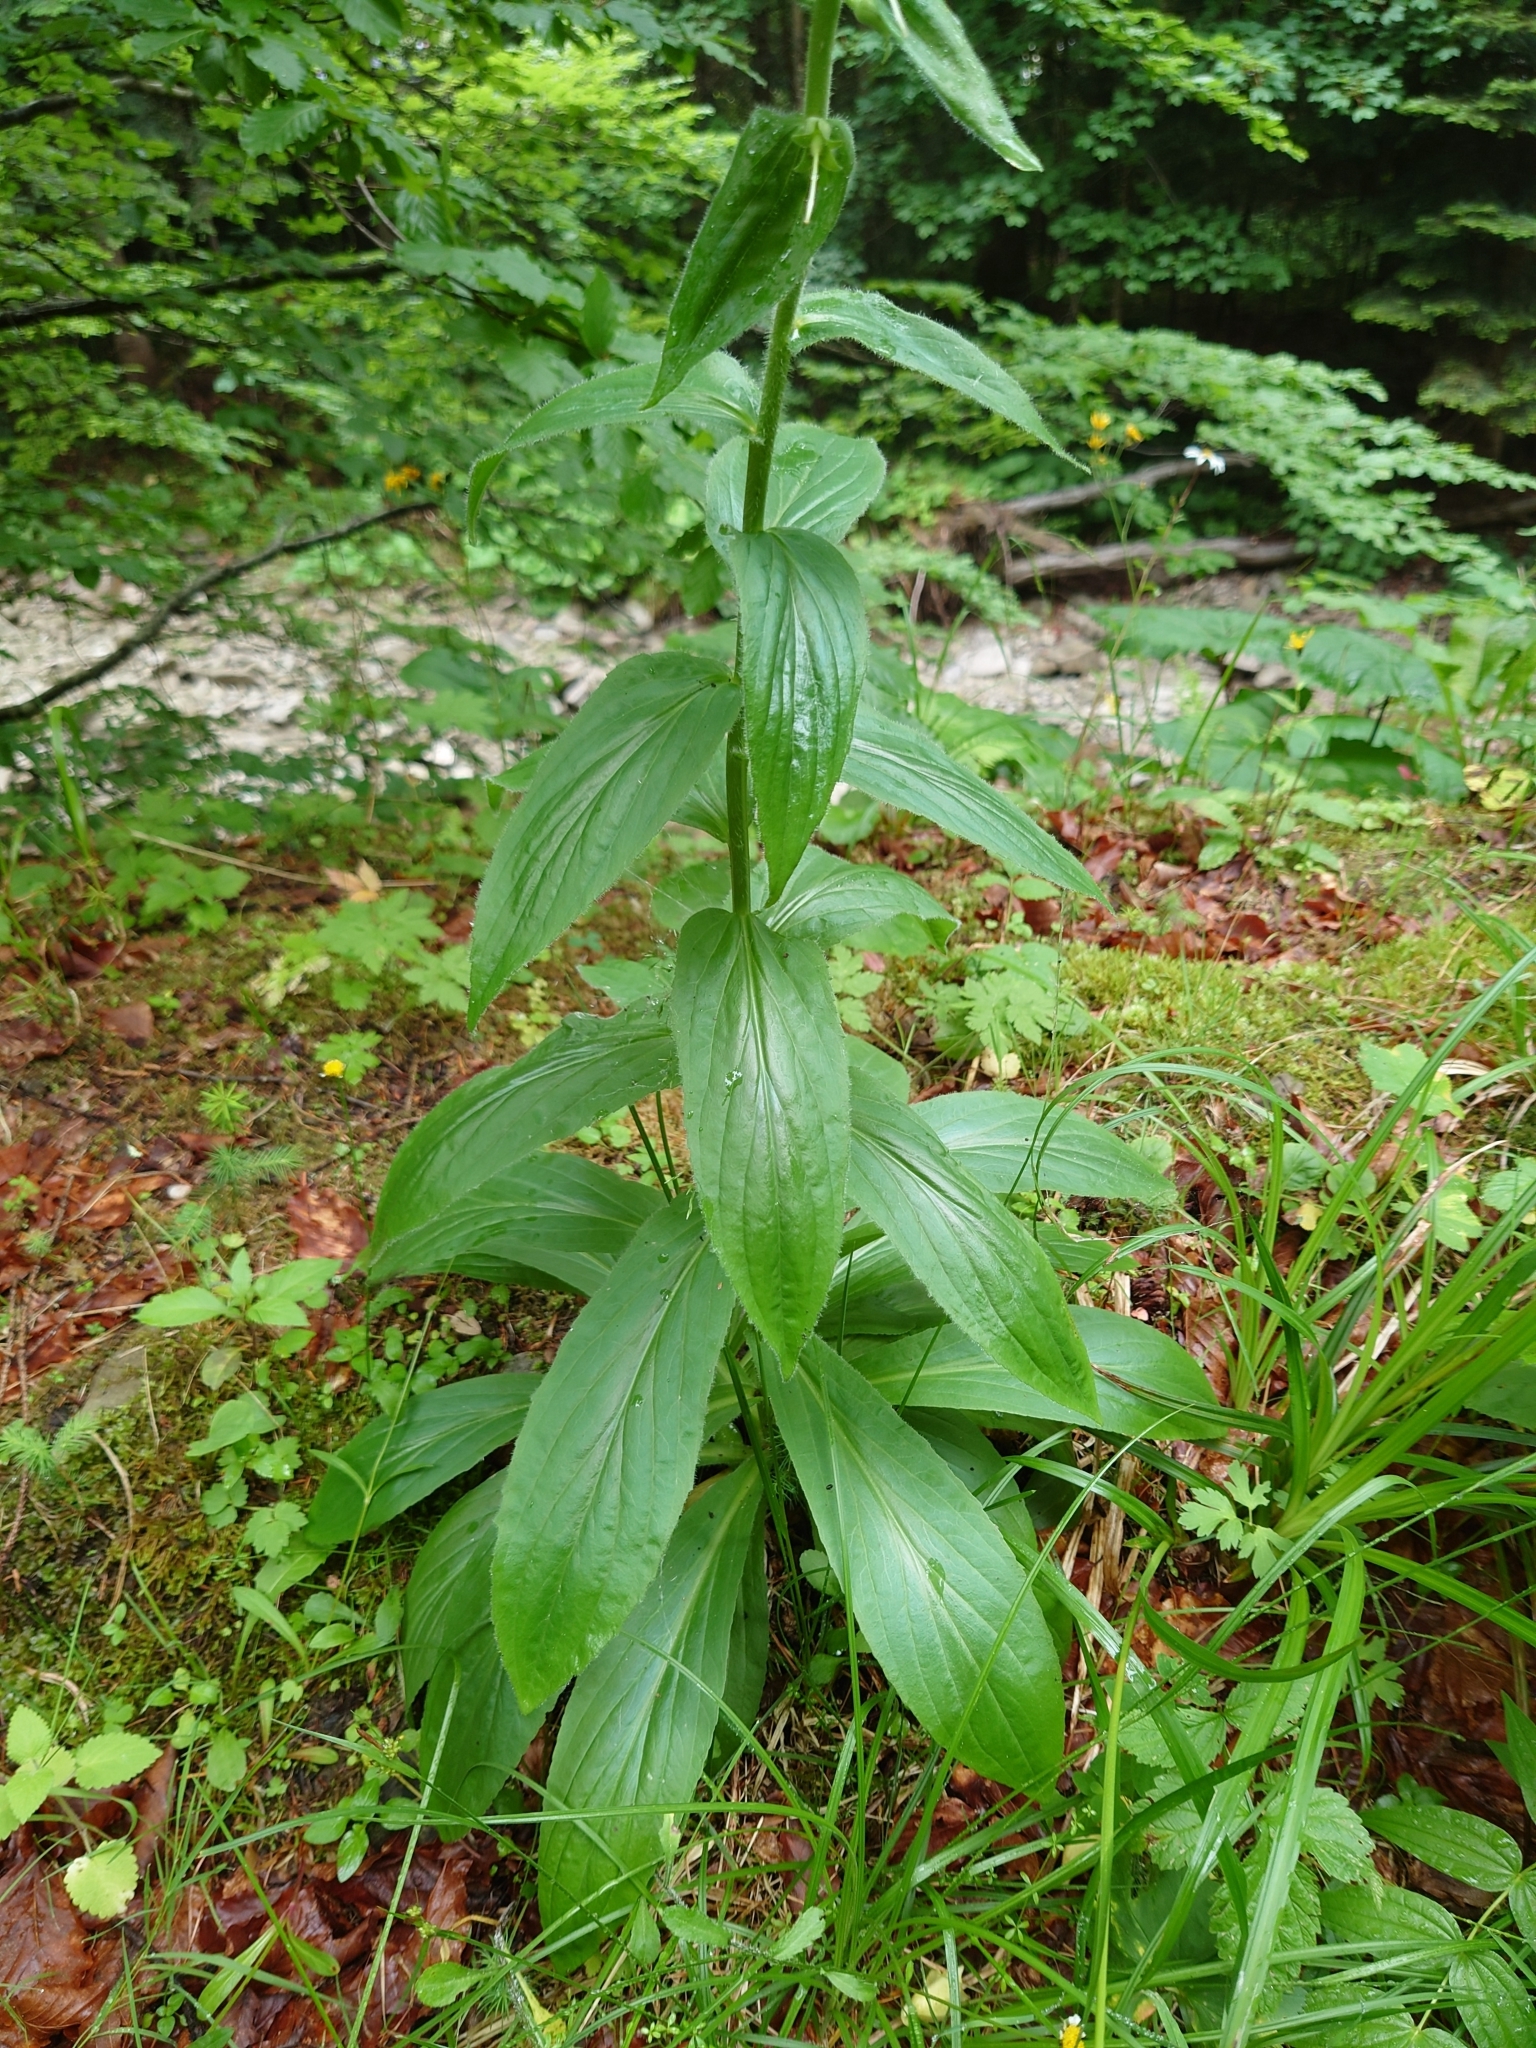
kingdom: Plantae
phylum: Tracheophyta
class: Magnoliopsida
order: Lamiales
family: Plantaginaceae
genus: Digitalis
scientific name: Digitalis grandiflora
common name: Yellow foxglove
